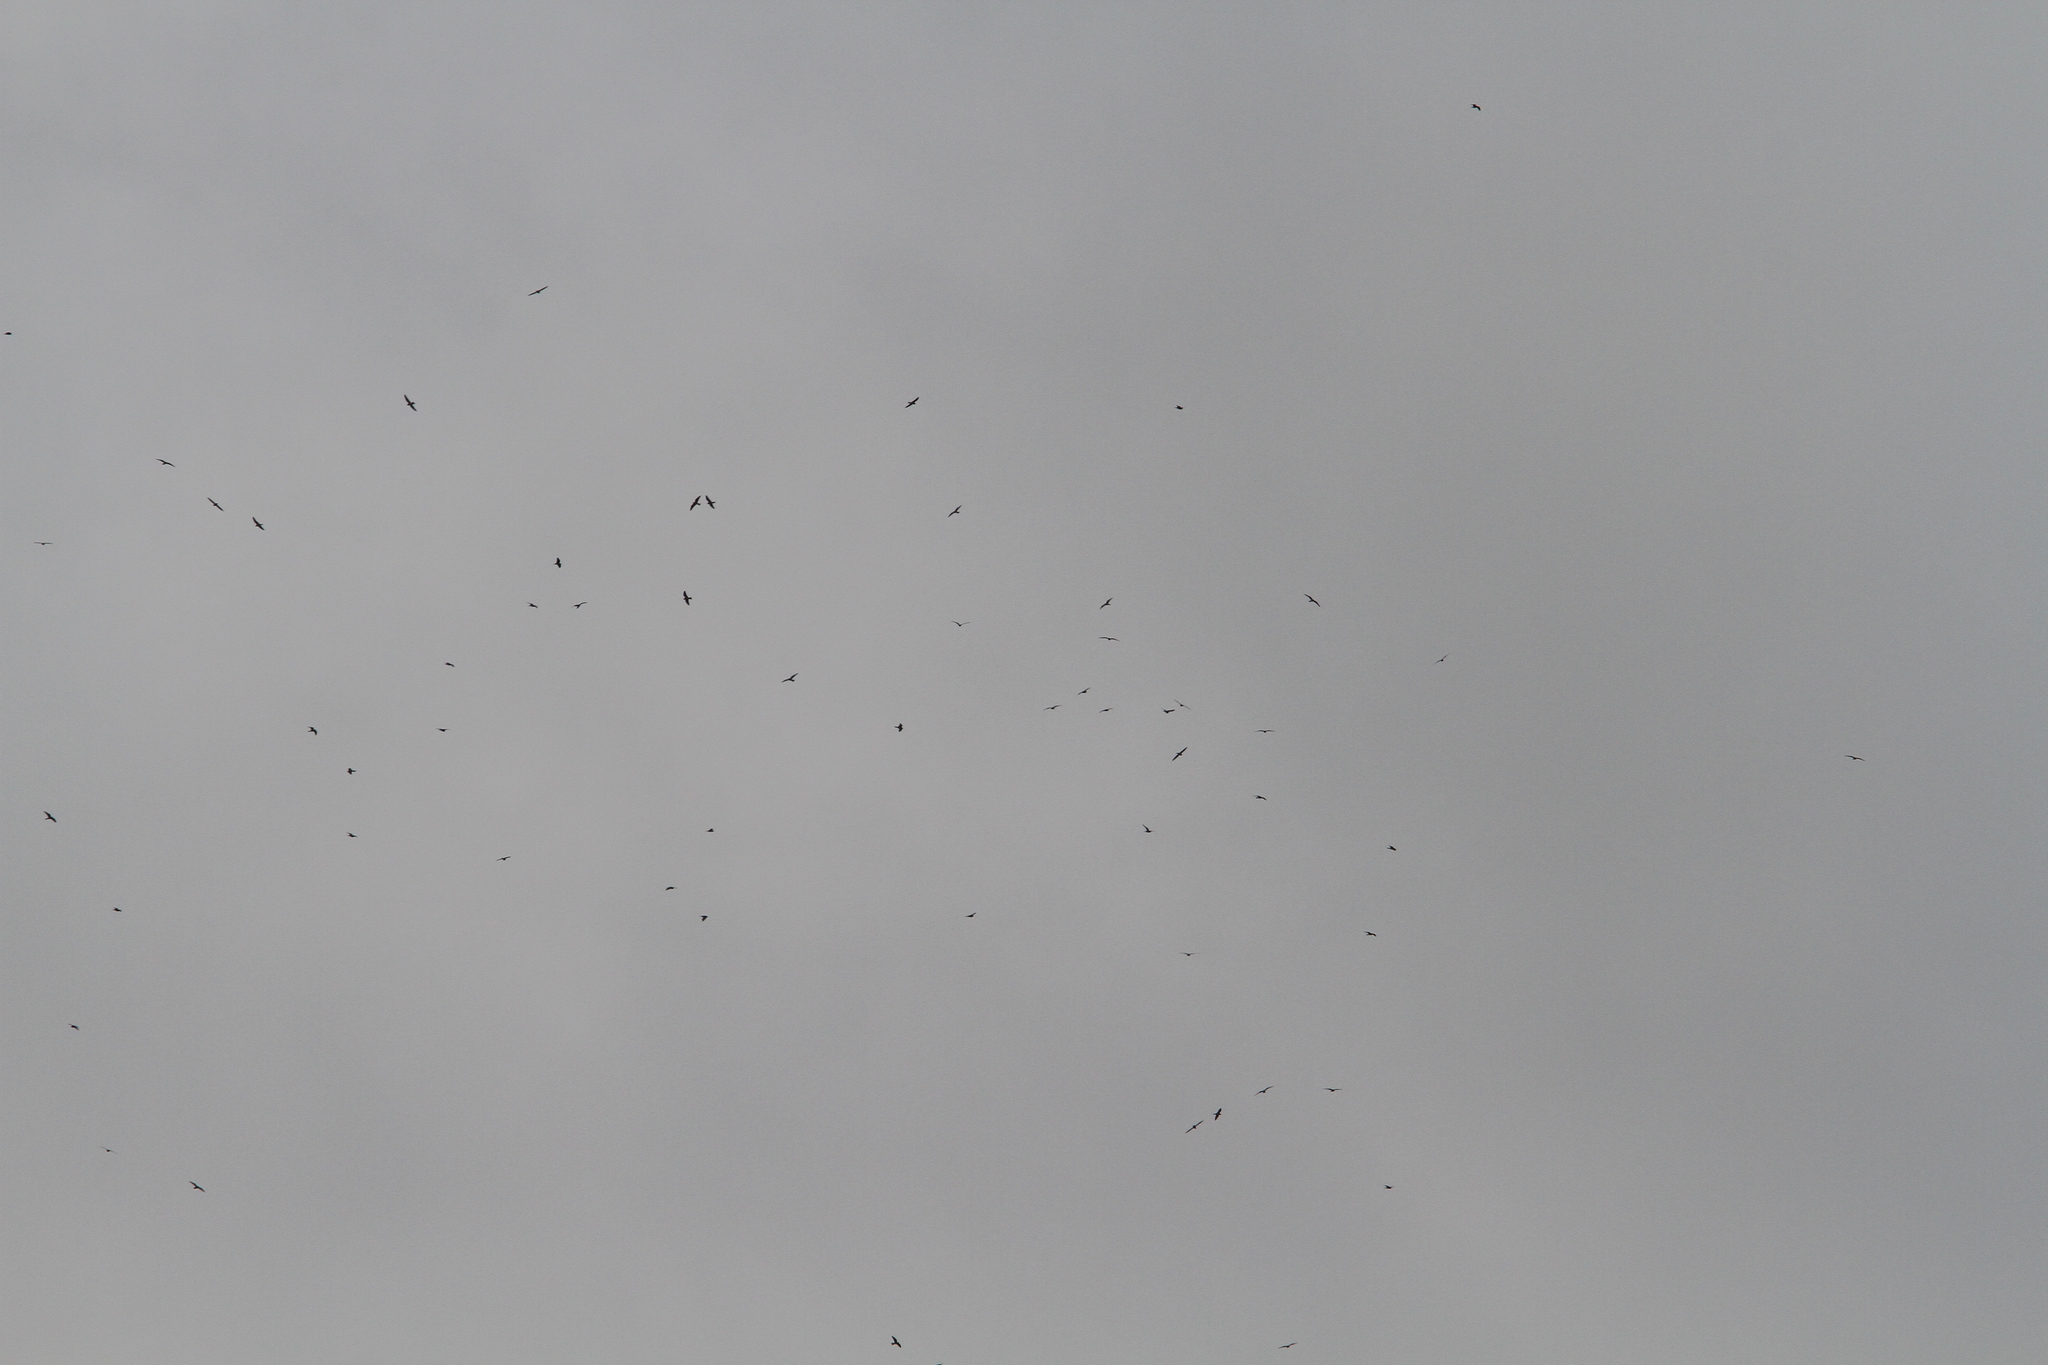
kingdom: Animalia
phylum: Chordata
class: Aves
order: Caprimulgiformes
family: Caprimulgidae
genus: Chordeiles
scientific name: Chordeiles minor
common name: Common nighthawk
